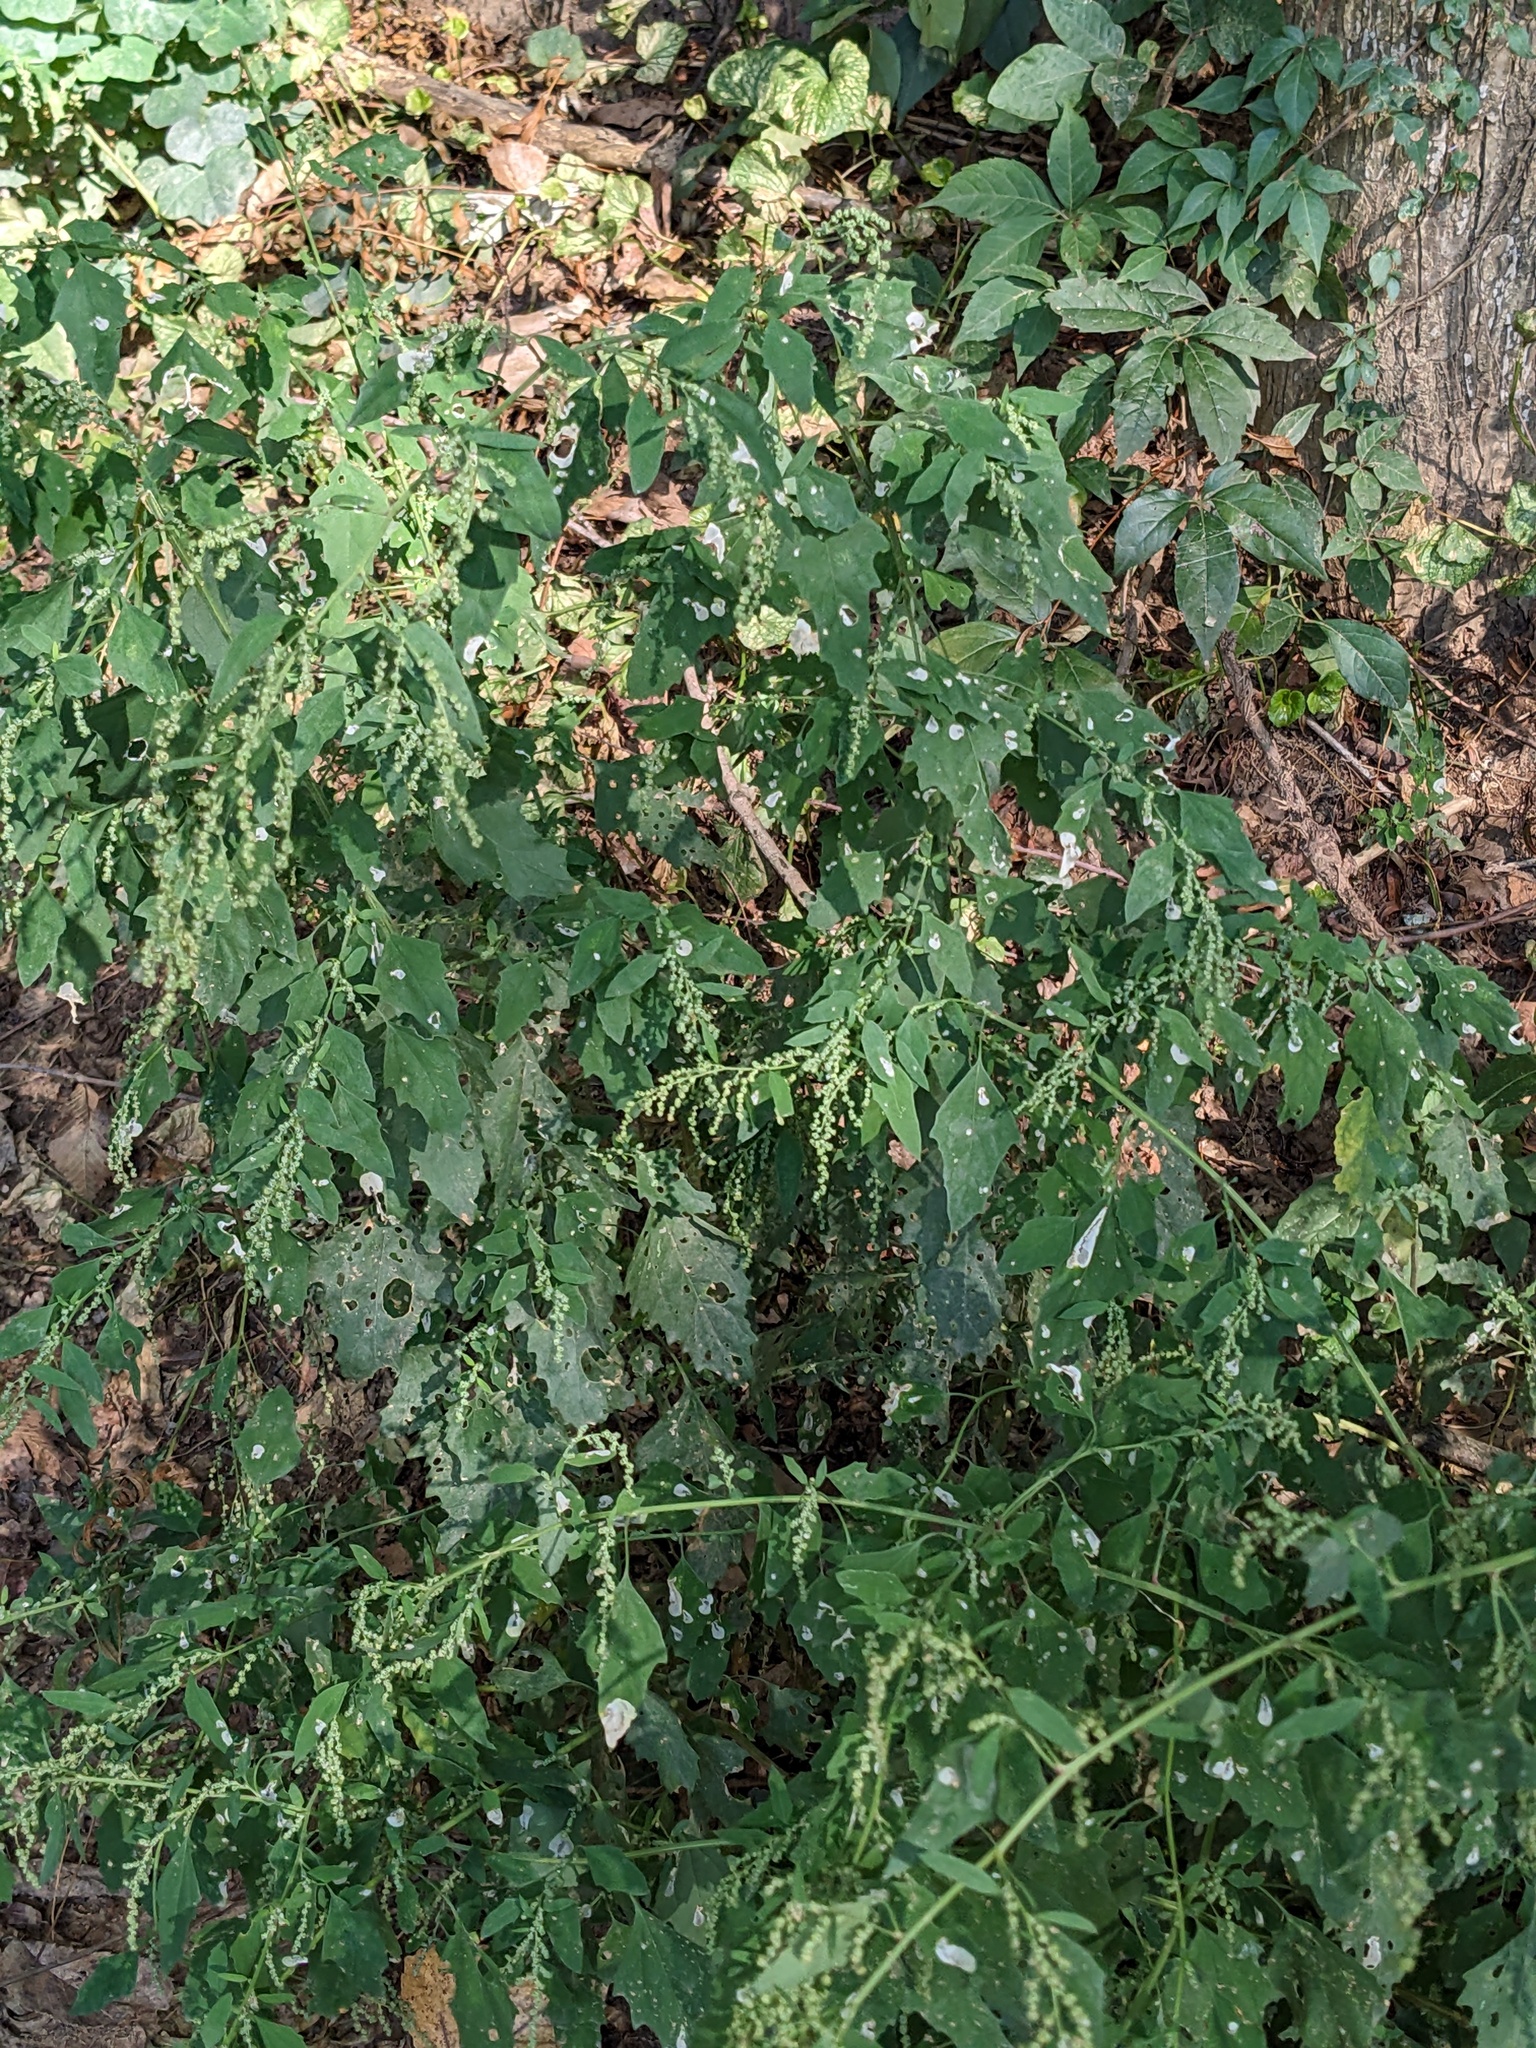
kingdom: Plantae
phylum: Tracheophyta
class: Magnoliopsida
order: Caryophyllales
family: Amaranthaceae
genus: Chenopodium
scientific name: Chenopodium album
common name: Fat-hen
